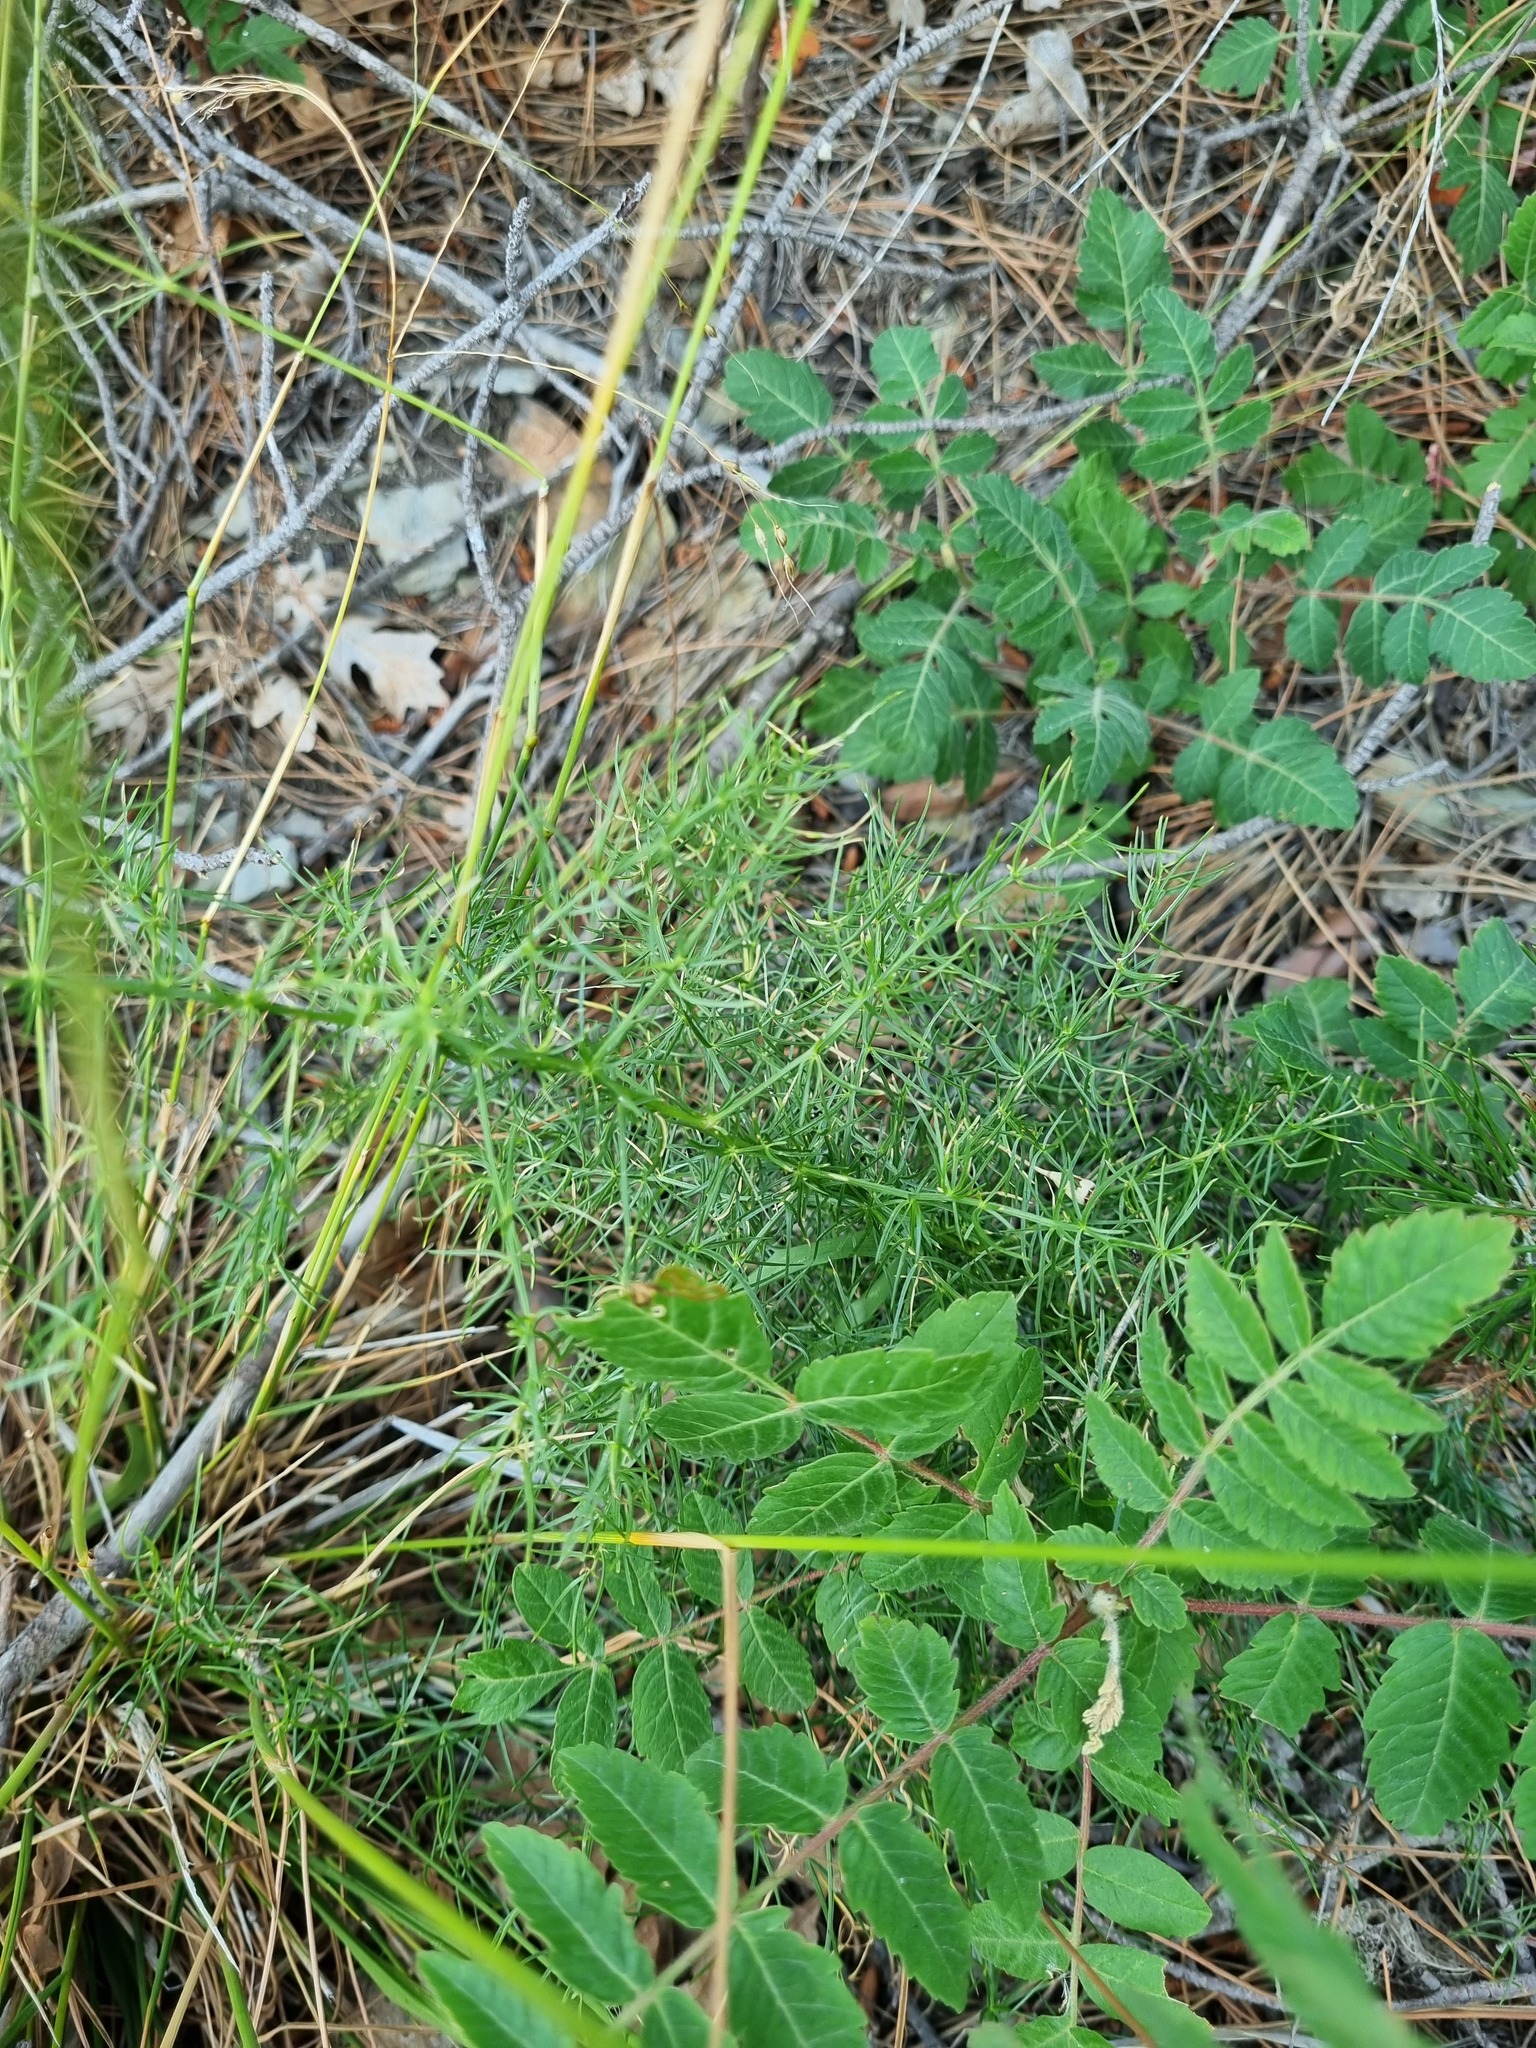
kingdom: Plantae
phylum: Tracheophyta
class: Liliopsida
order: Asparagales
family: Asparagaceae
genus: Asparagus
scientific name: Asparagus verticillatus
